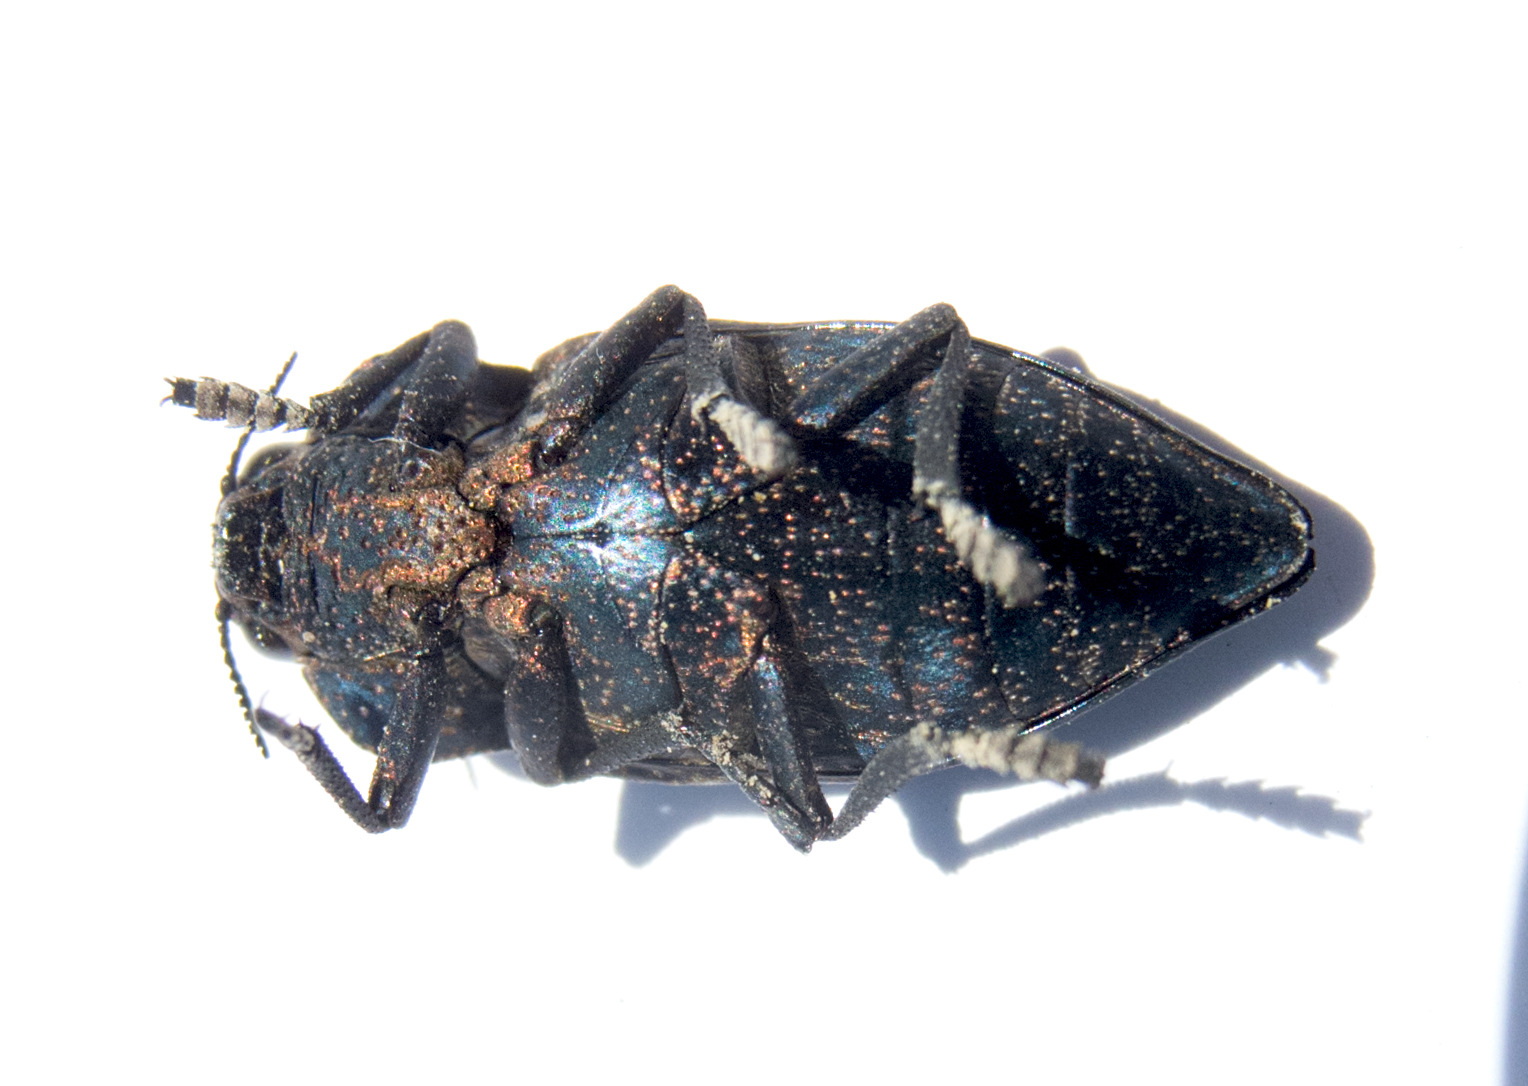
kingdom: Animalia
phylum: Arthropoda
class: Insecta
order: Coleoptera
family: Buprestidae
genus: Capnodis
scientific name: Capnodis tenebricosa
